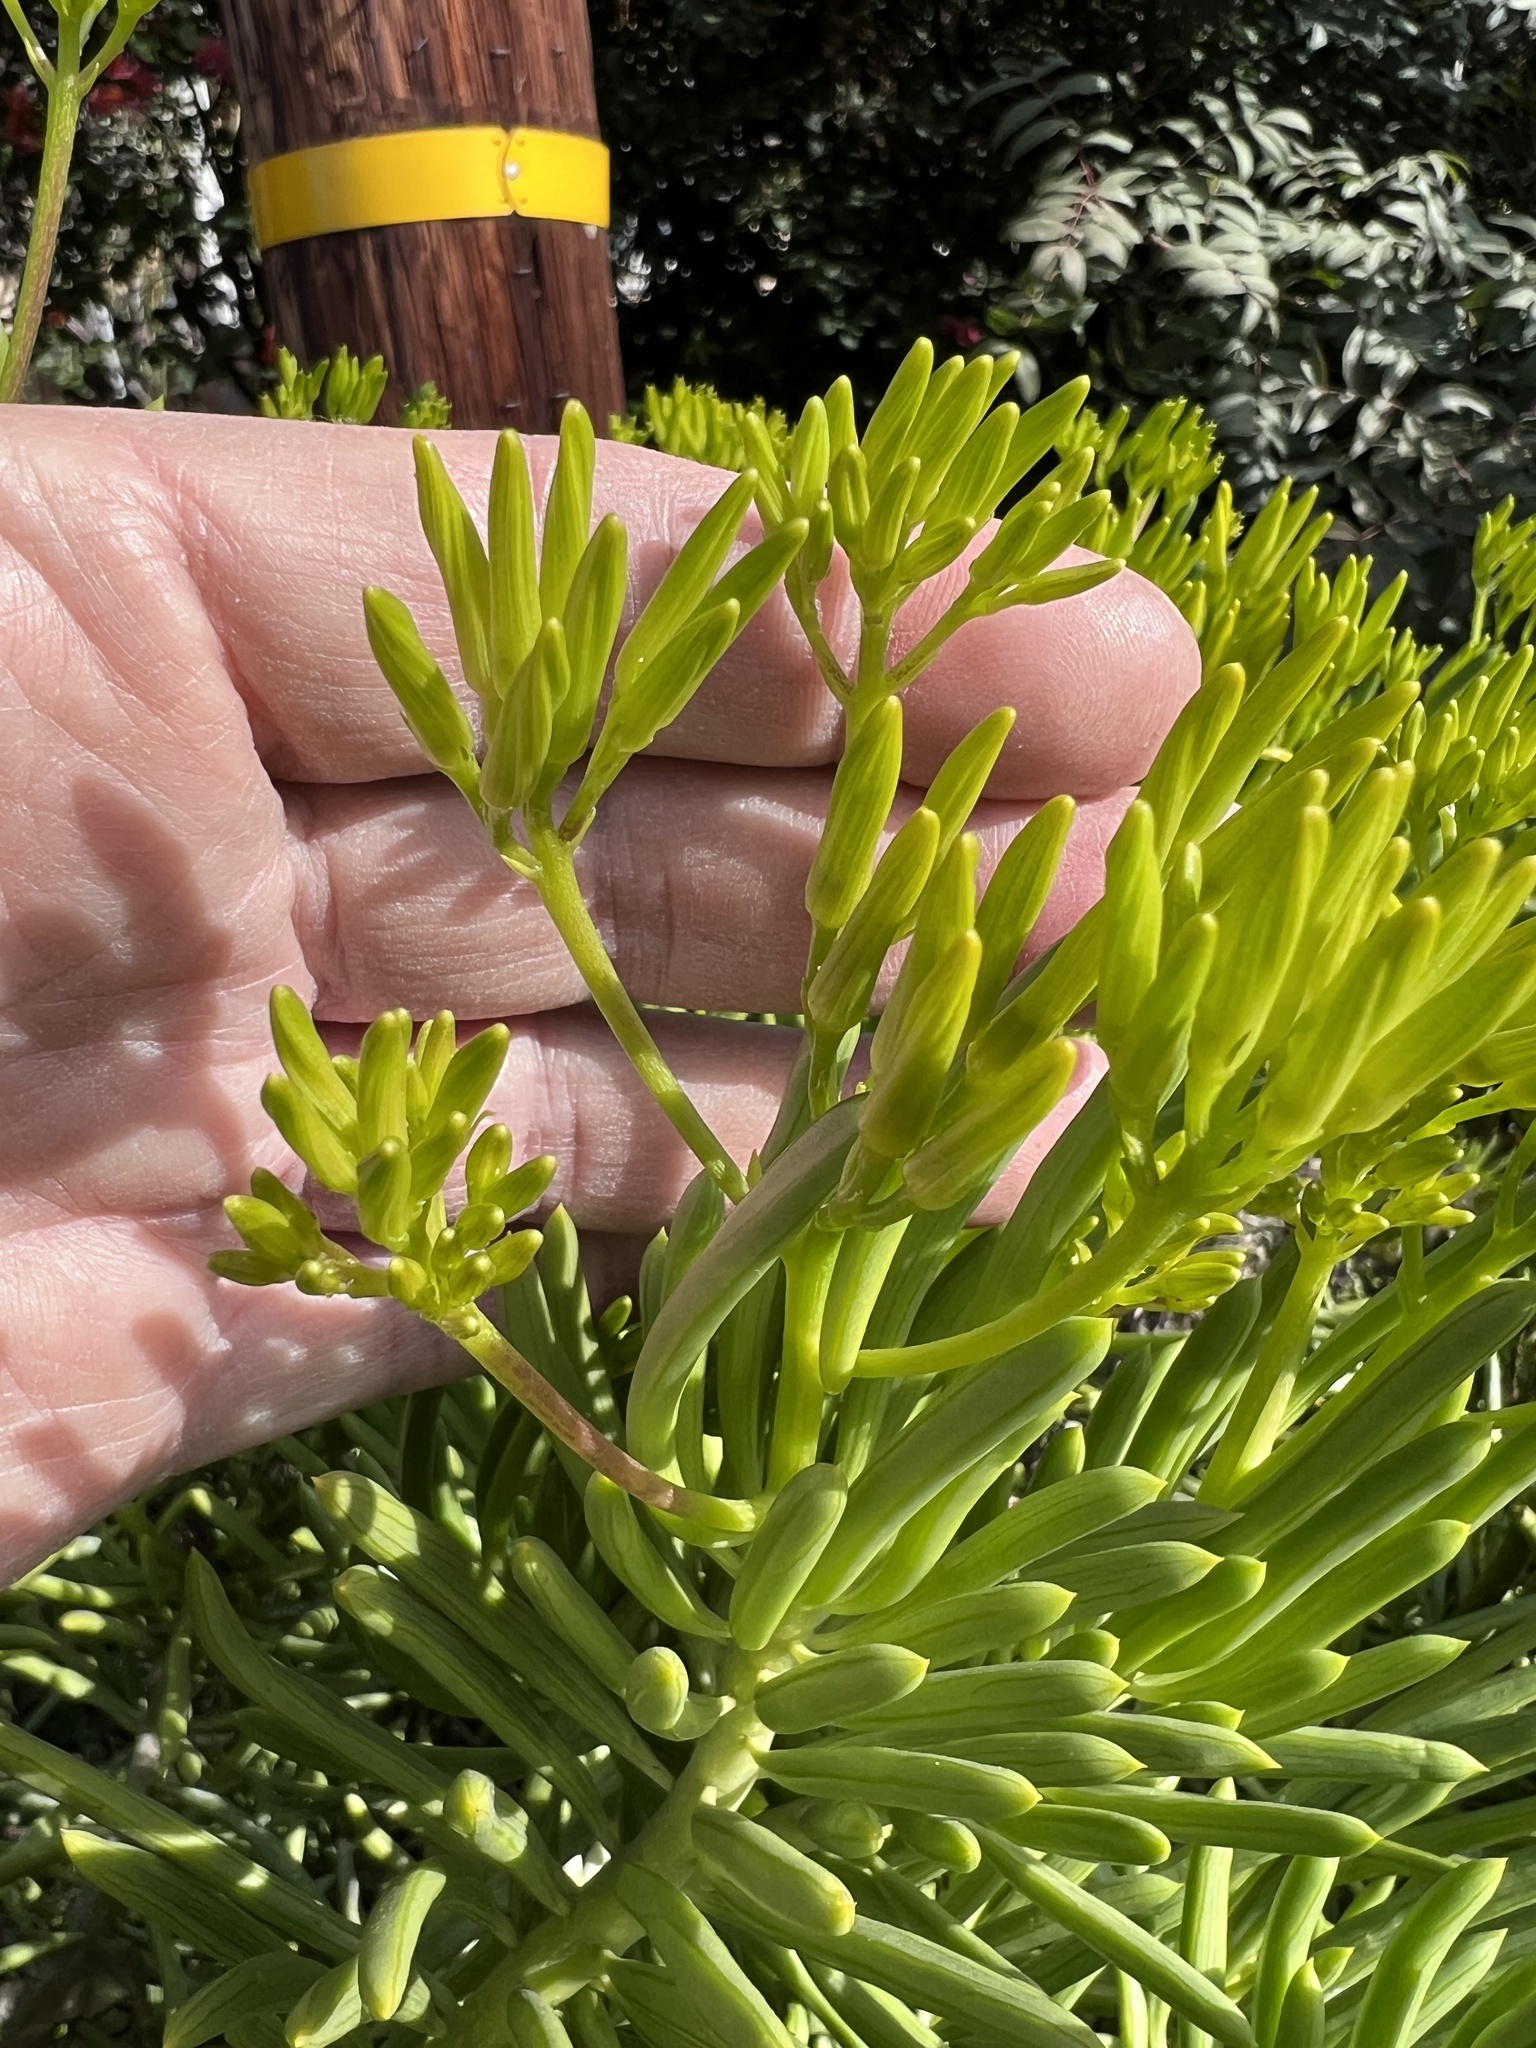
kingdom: Plantae
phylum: Tracheophyta
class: Magnoliopsida
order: Asterales
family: Asteraceae
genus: Kleinia
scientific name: Kleinia barbertonica
